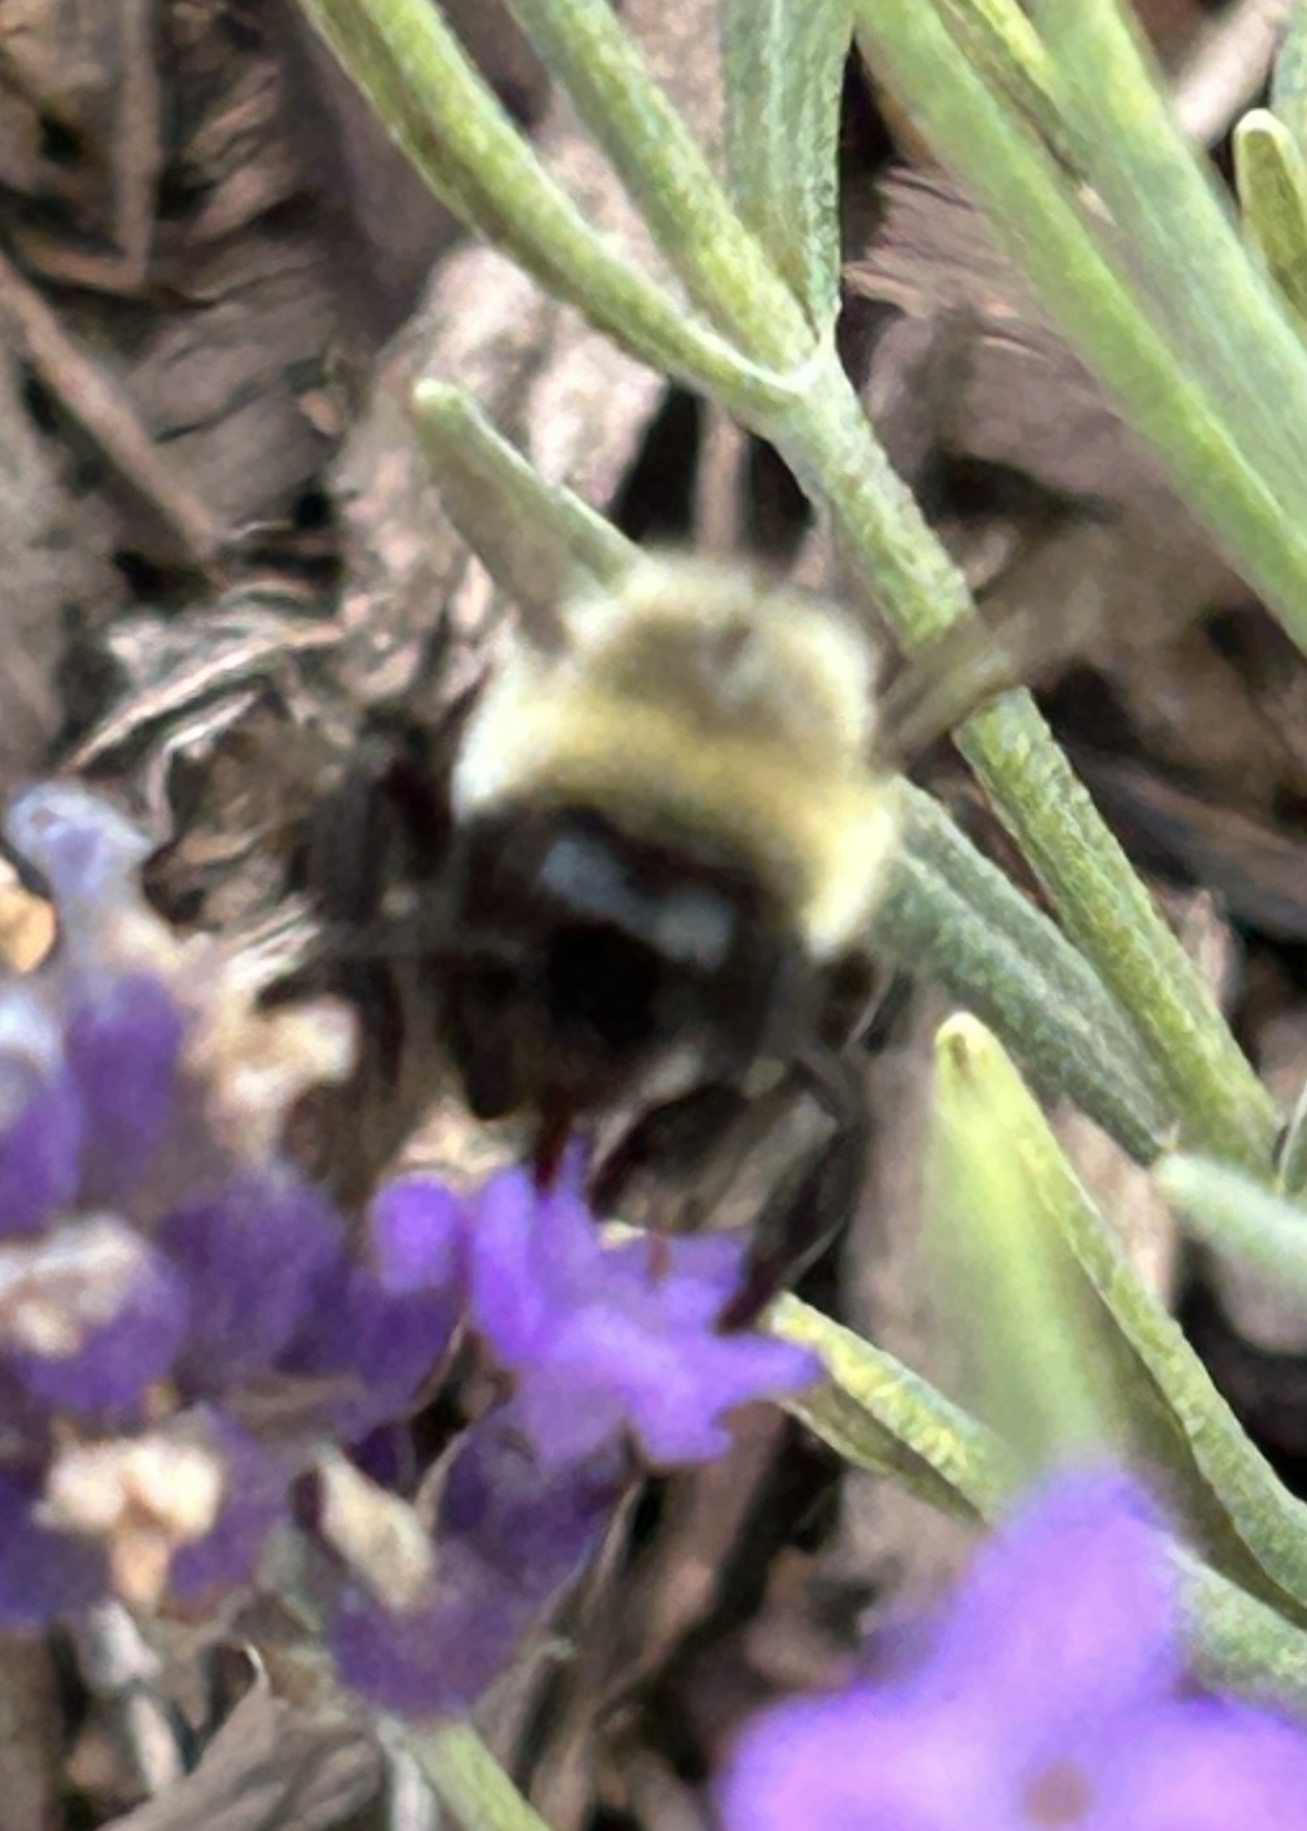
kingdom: Animalia
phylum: Arthropoda
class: Insecta
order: Hymenoptera
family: Apidae
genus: Bombus
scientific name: Bombus impatiens
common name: Common eastern bumble bee
